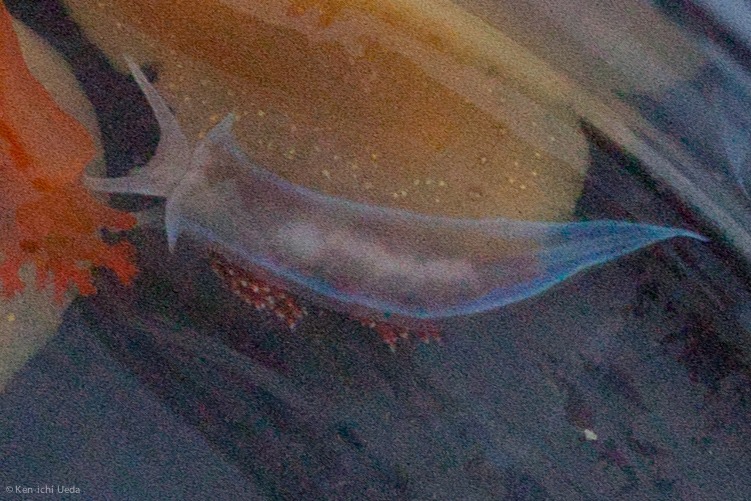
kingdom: Animalia
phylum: Mollusca
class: Gastropoda
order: Nudibranchia
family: Myrrhinidae
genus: Hermissenda
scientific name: Hermissenda opalescens
